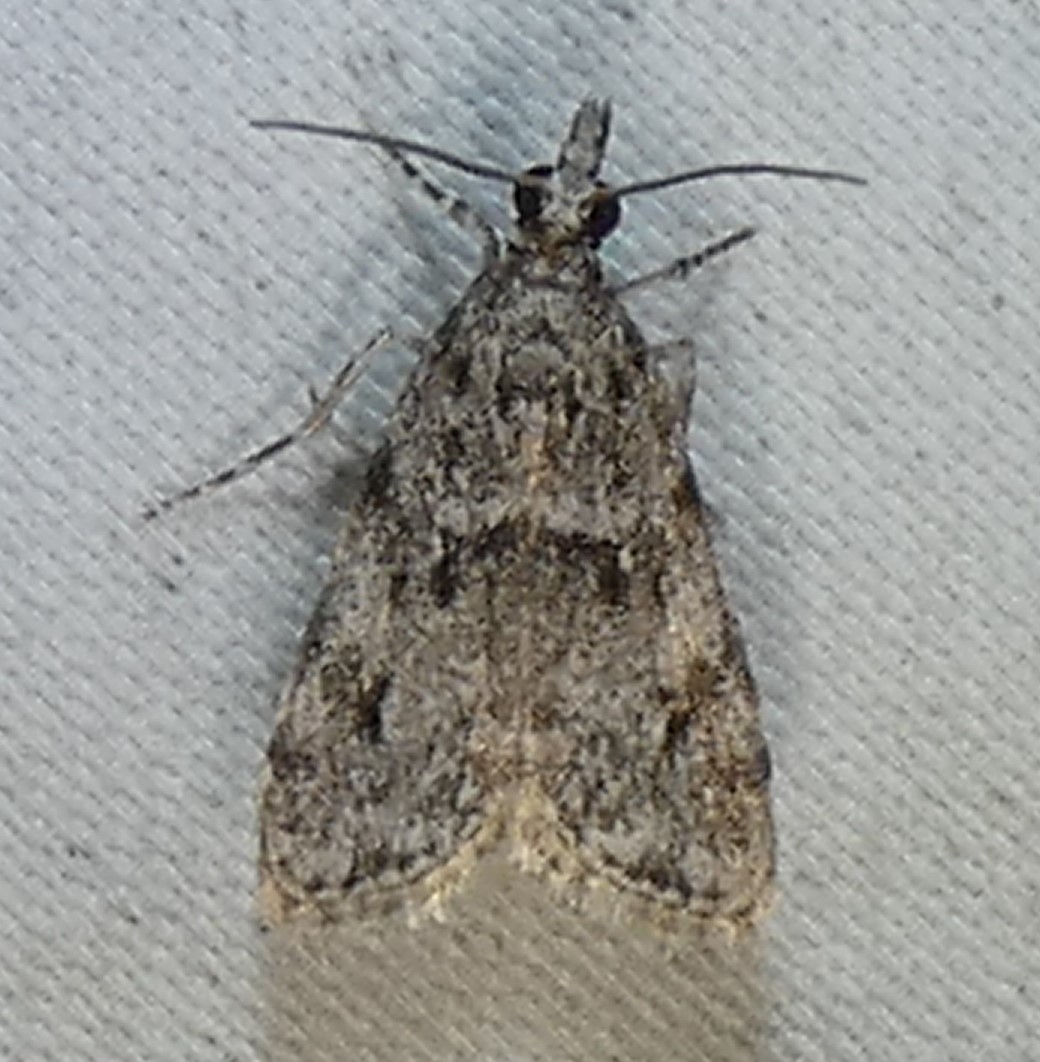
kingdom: Animalia
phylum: Arthropoda
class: Insecta
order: Lepidoptera
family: Crambidae
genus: Eudonia
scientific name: Eudonia heterosalis
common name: Mcdunnough's eudonia
